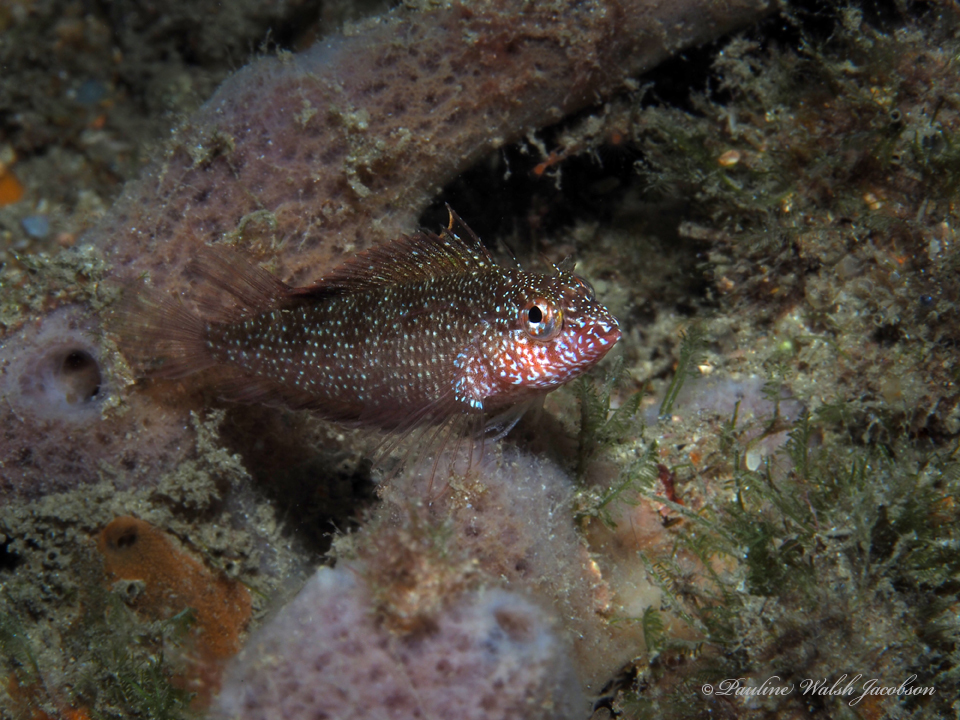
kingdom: Animalia
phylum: Chordata
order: Perciformes
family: Labrisomidae
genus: Malacoctenus
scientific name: Malacoctenus macropus
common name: Rosy blenny
